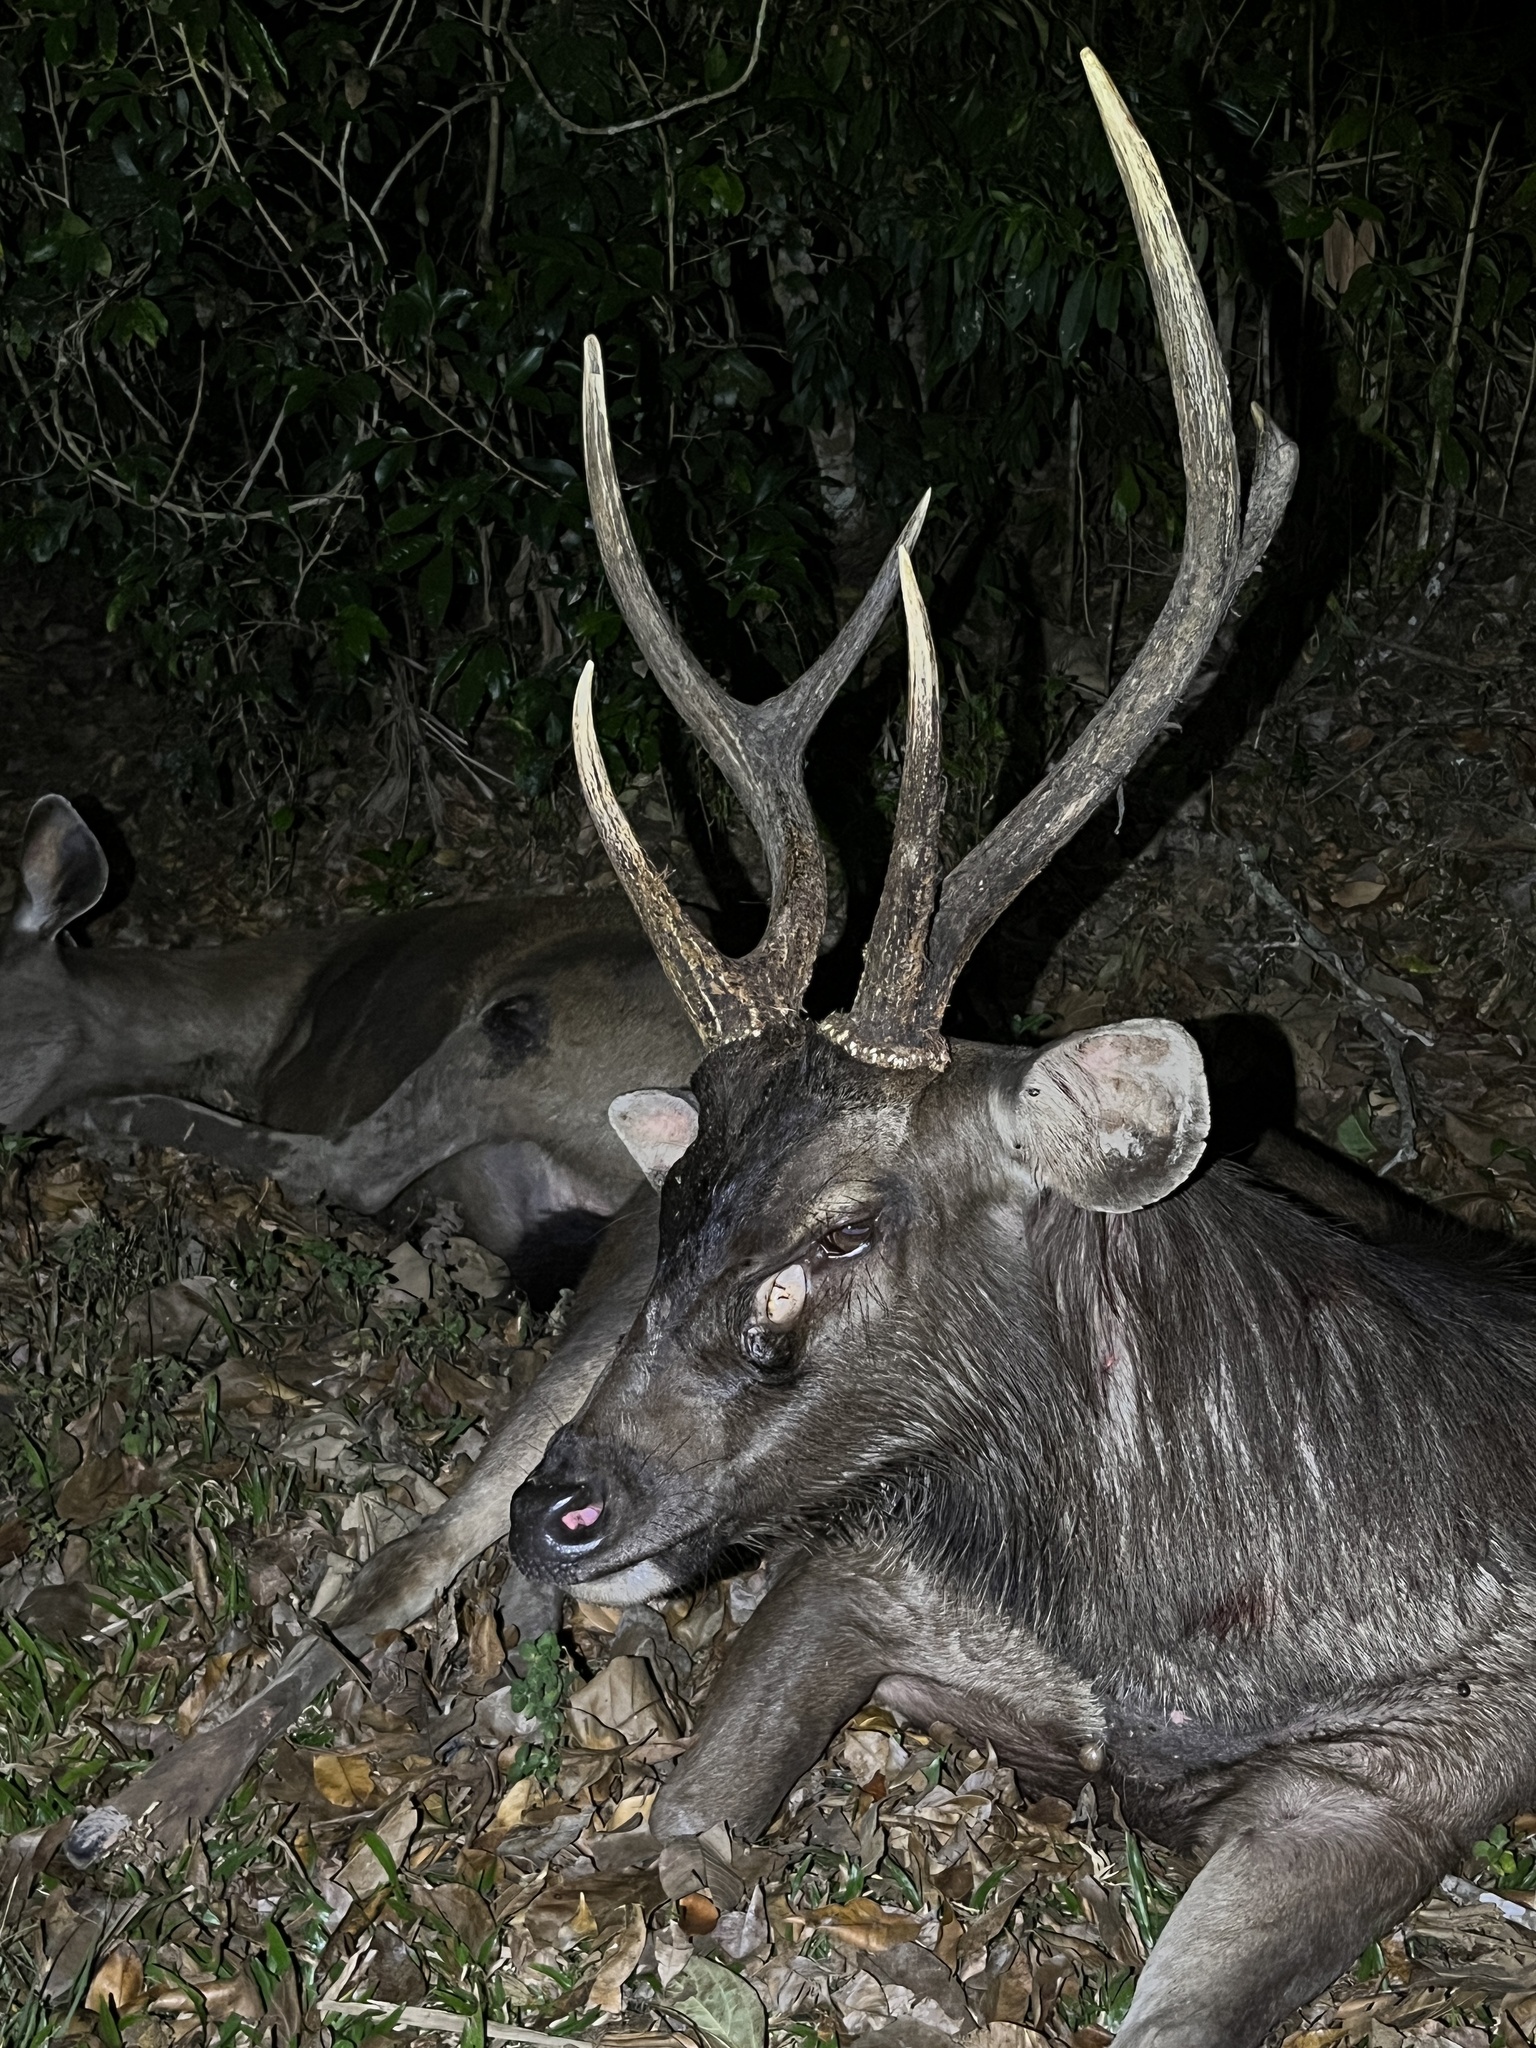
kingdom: Animalia
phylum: Chordata
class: Mammalia
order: Artiodactyla
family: Cervidae
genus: Rusa
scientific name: Rusa unicolor
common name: Sambar
